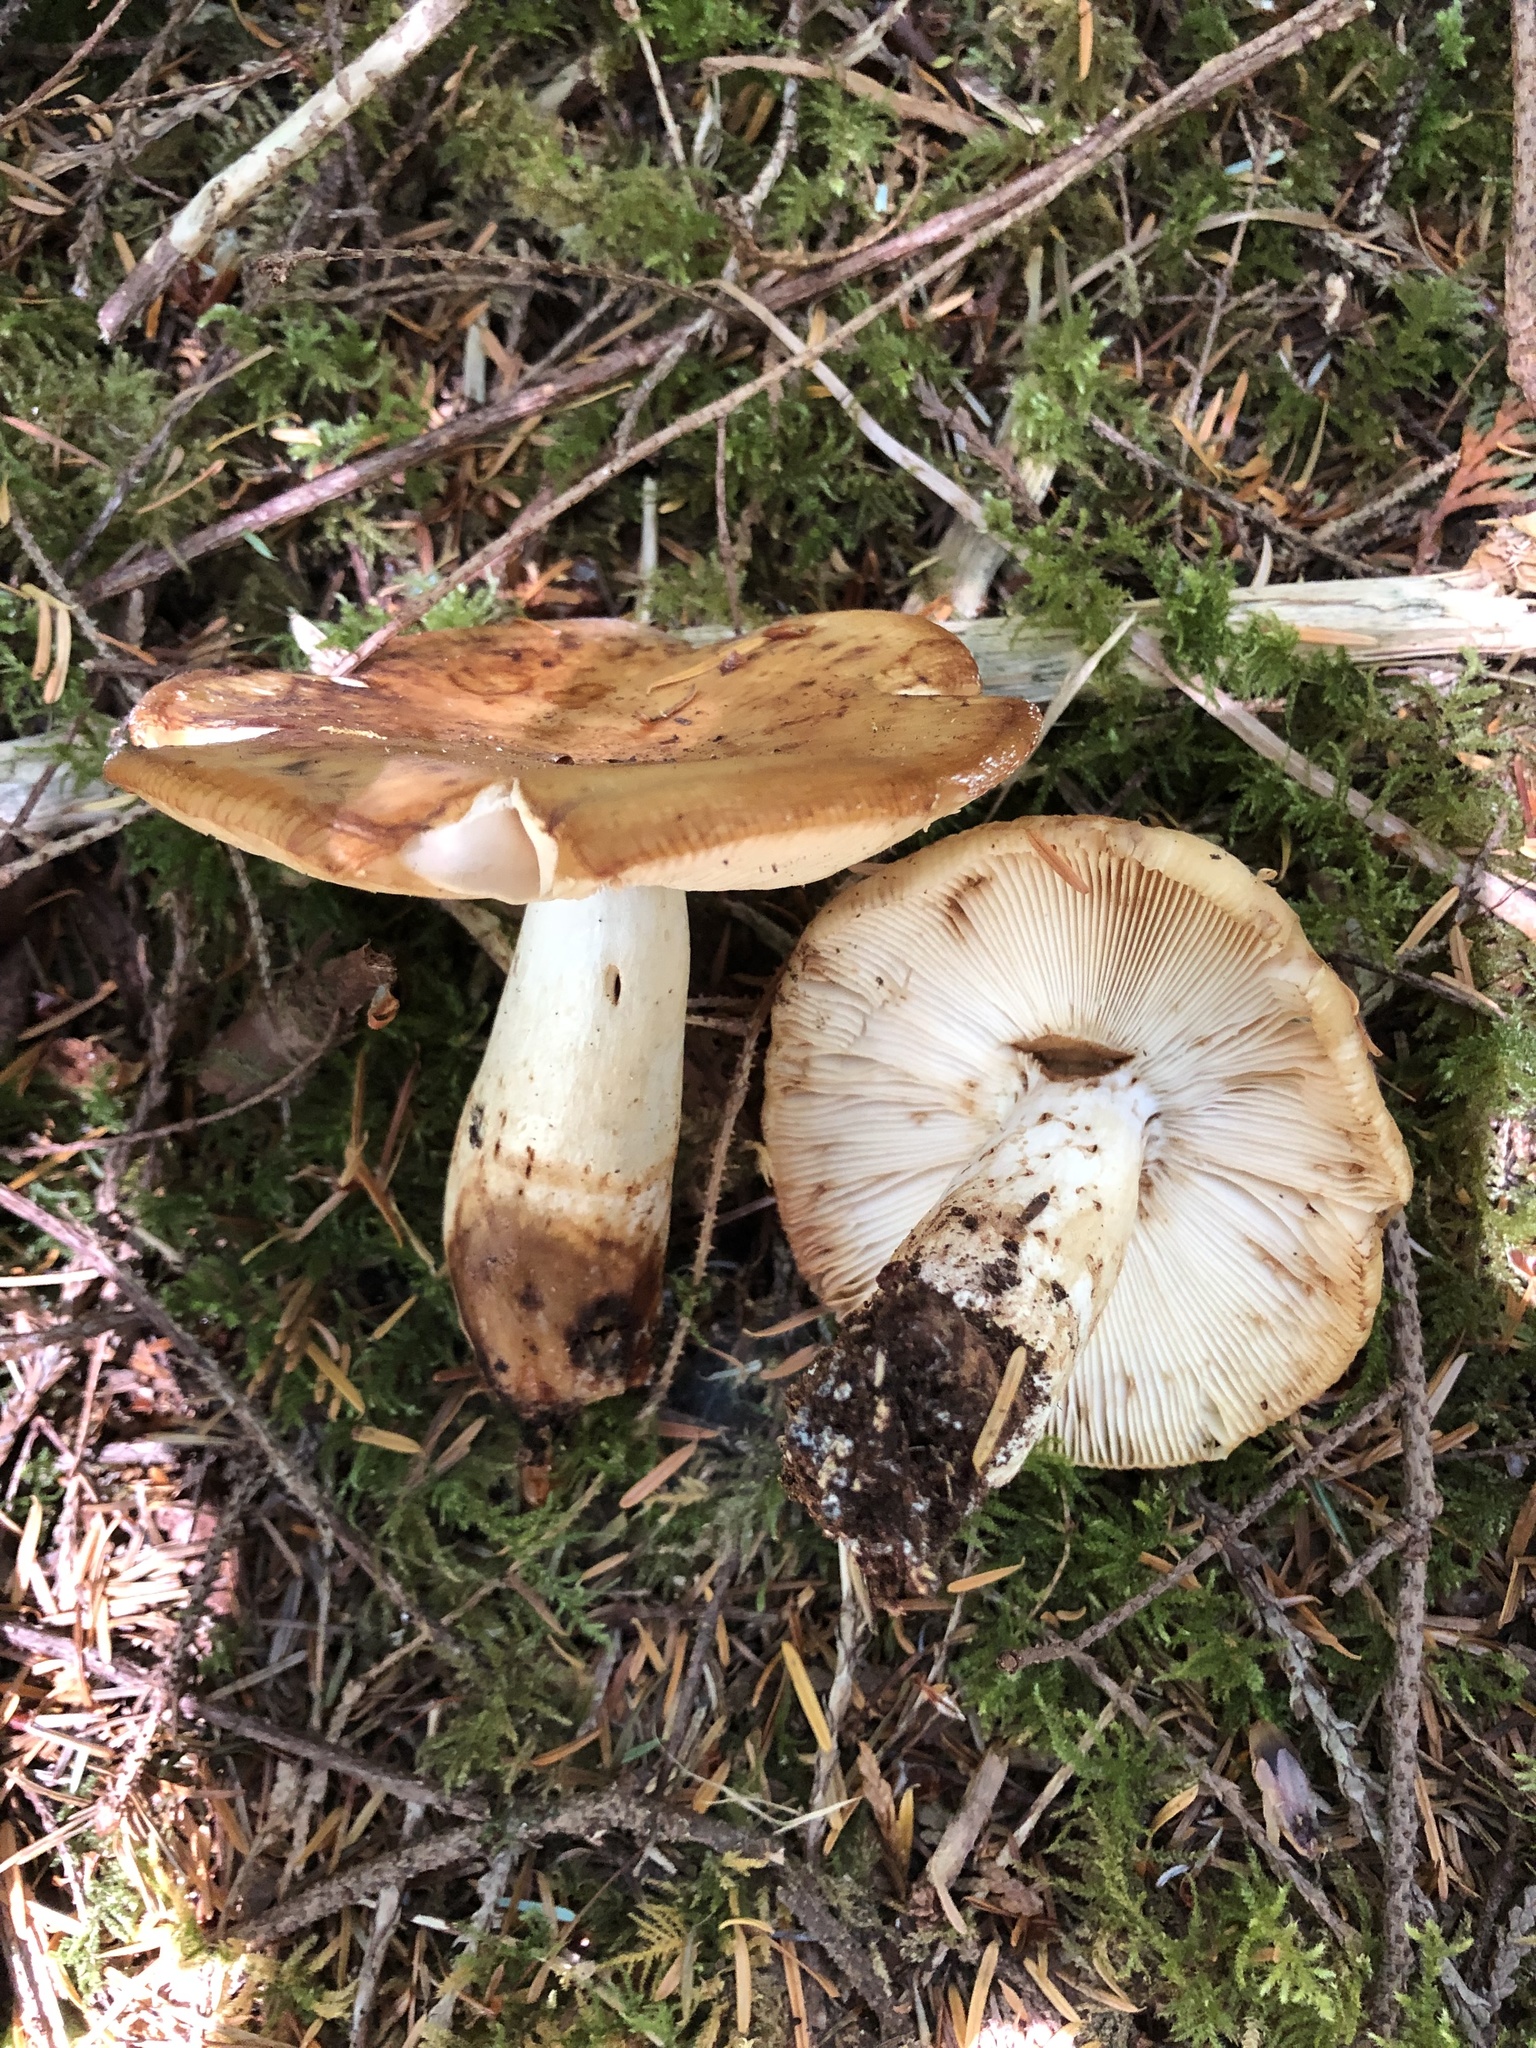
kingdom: Fungi
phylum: Basidiomycota
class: Agaricomycetes
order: Russulales
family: Russulaceae
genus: Russula
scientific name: Russula fragrantissima
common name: Almond-scented russula
